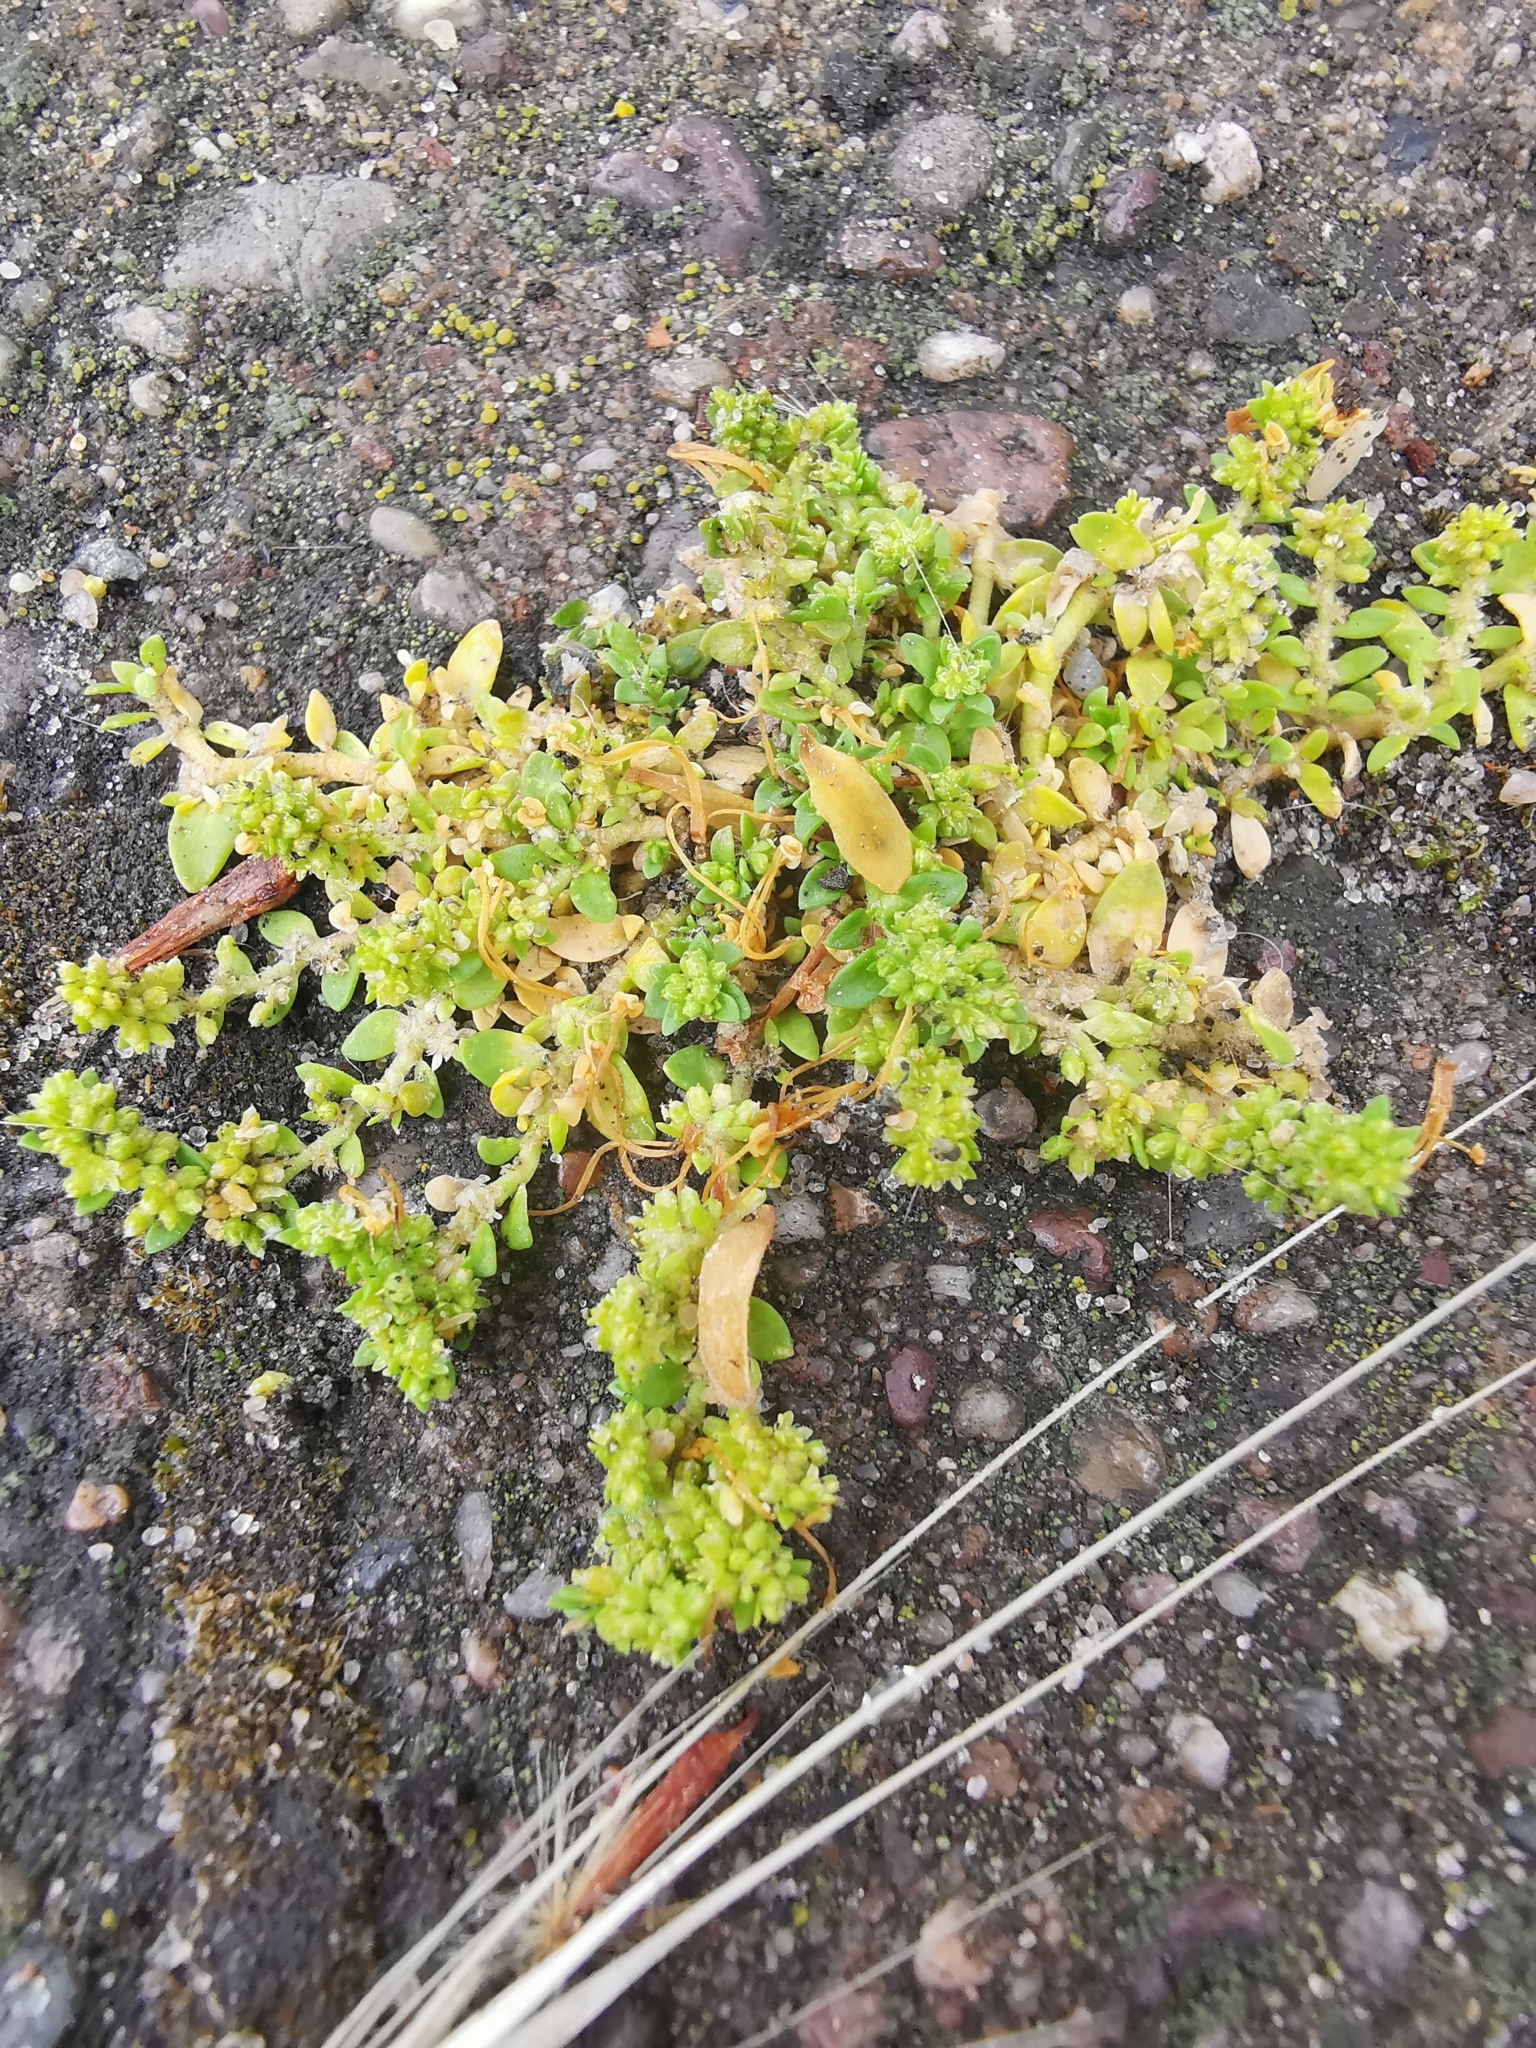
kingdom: Plantae
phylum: Tracheophyta
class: Magnoliopsida
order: Caryophyllales
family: Caryophyllaceae
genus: Herniaria
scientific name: Herniaria glabra
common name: Smooth rupturewort
